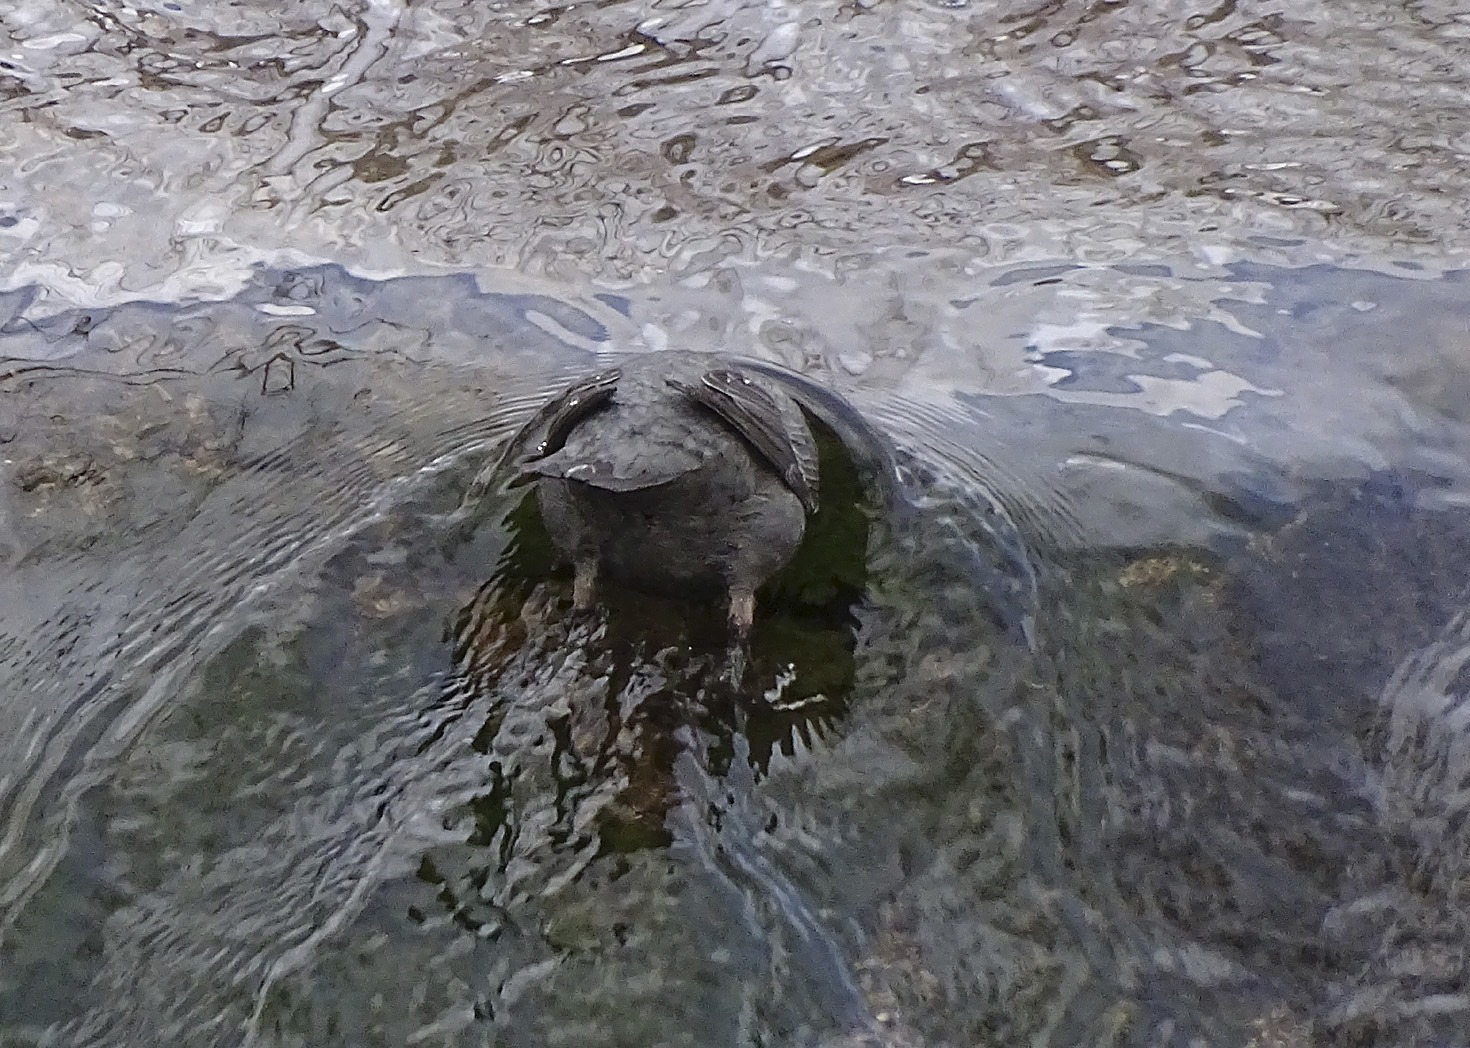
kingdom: Animalia
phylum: Chordata
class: Aves
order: Passeriformes
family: Cinclidae
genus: Cinclus
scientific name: Cinclus mexicanus
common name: American dipper
